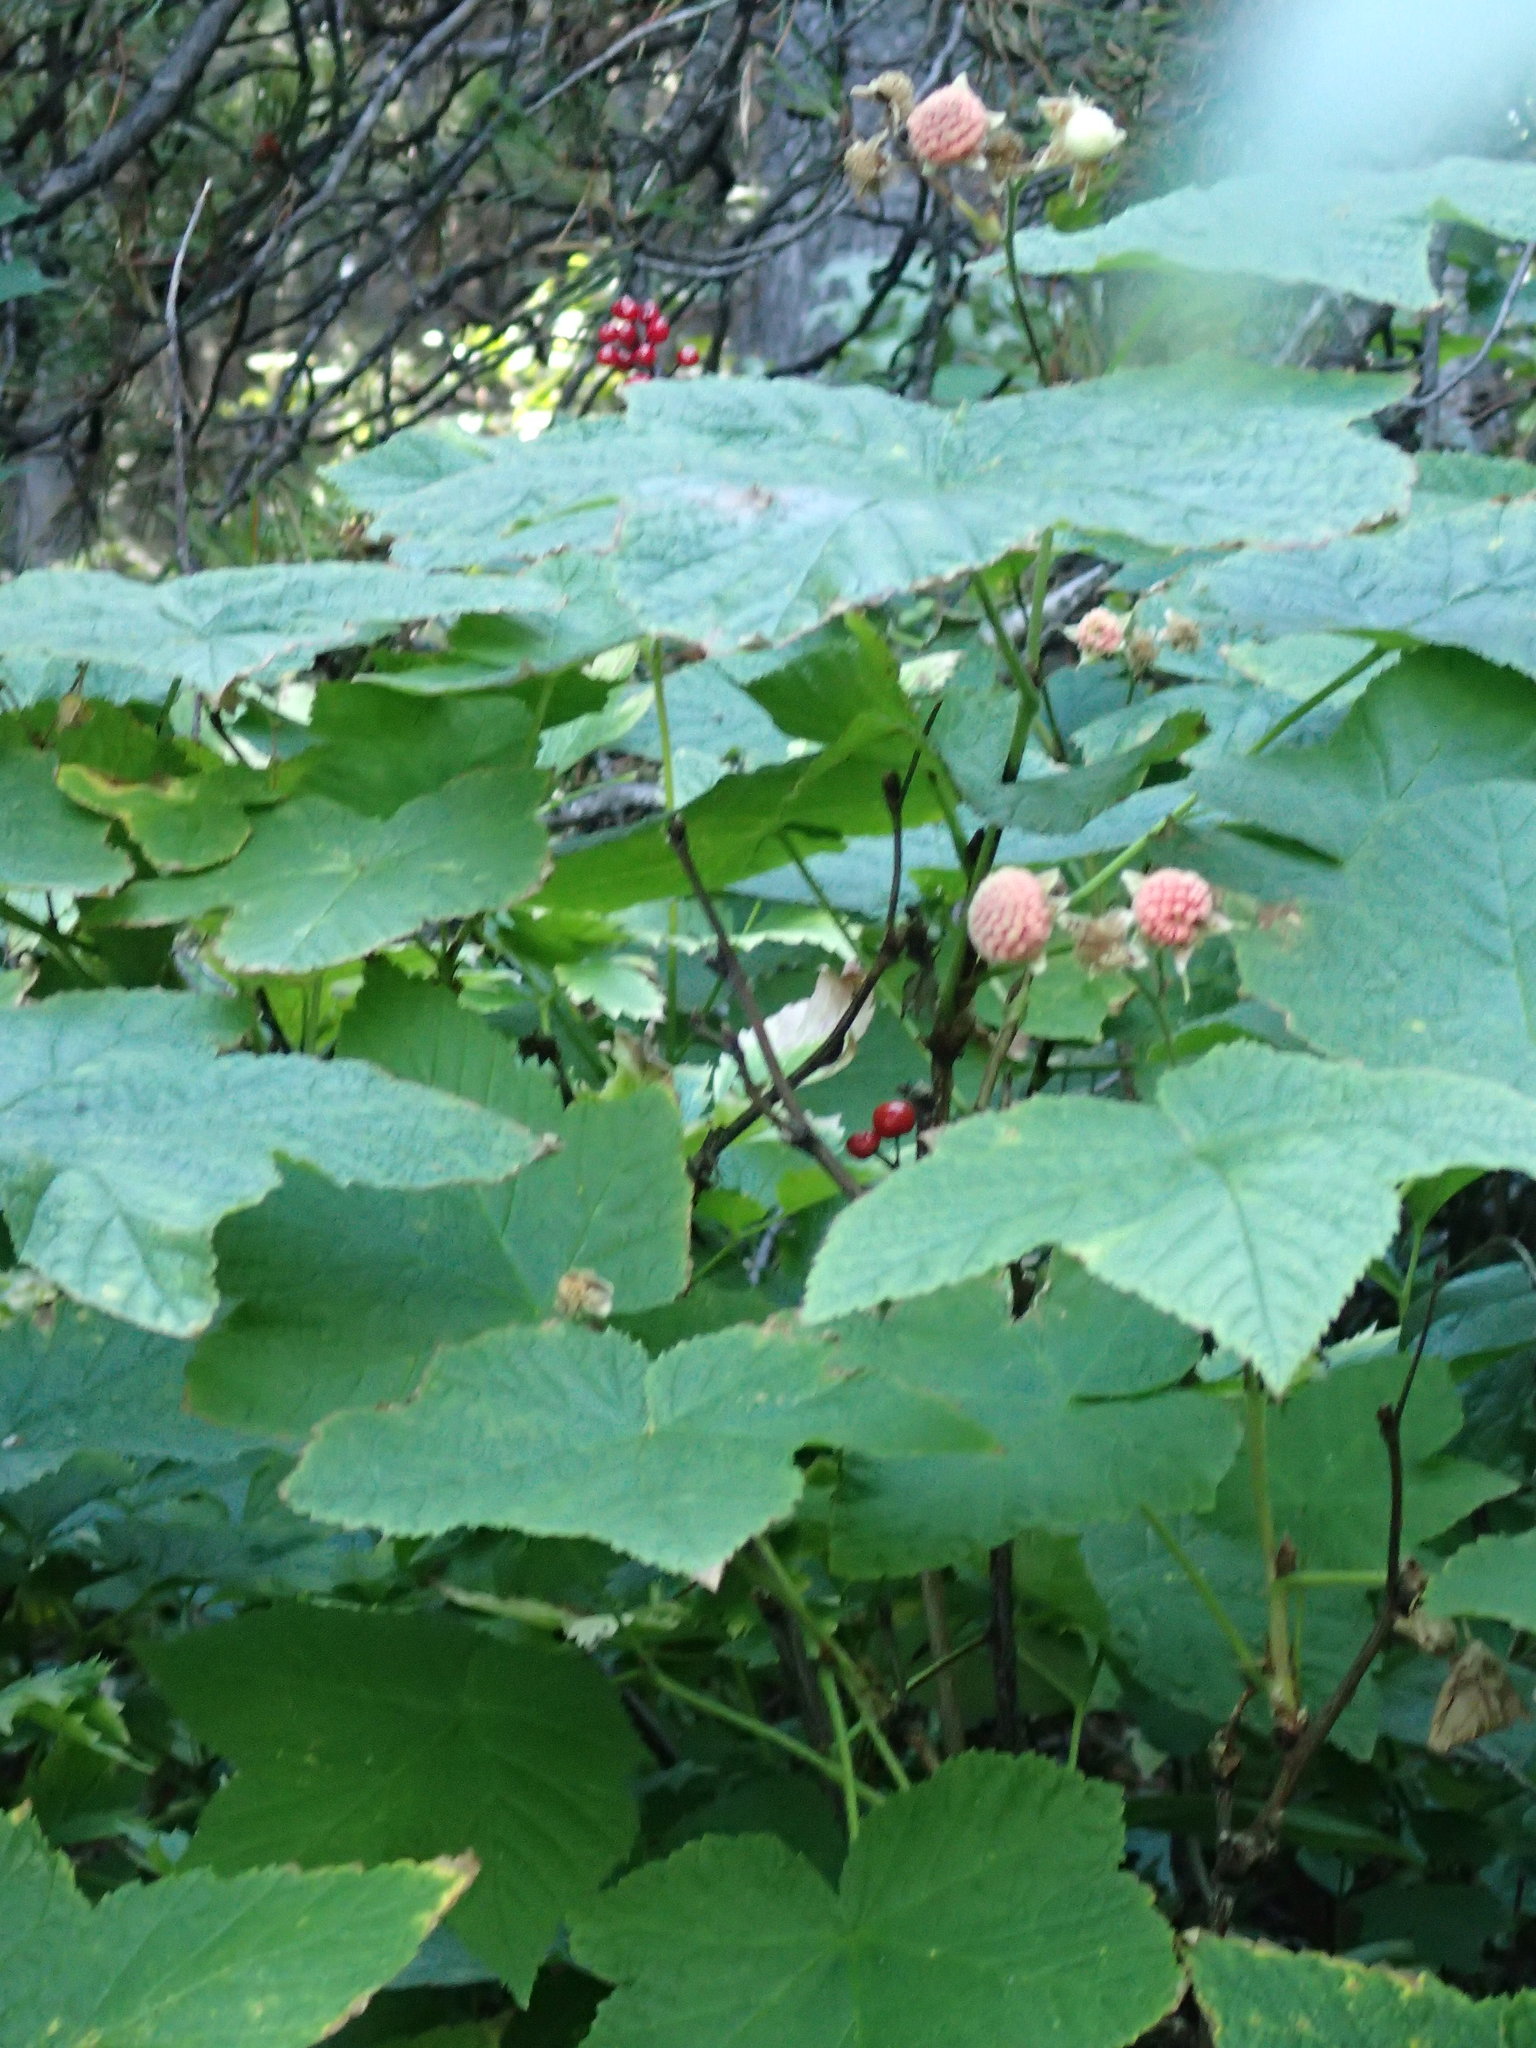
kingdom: Plantae
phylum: Tracheophyta
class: Magnoliopsida
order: Rosales
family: Rosaceae
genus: Rubus
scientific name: Rubus parviflorus
